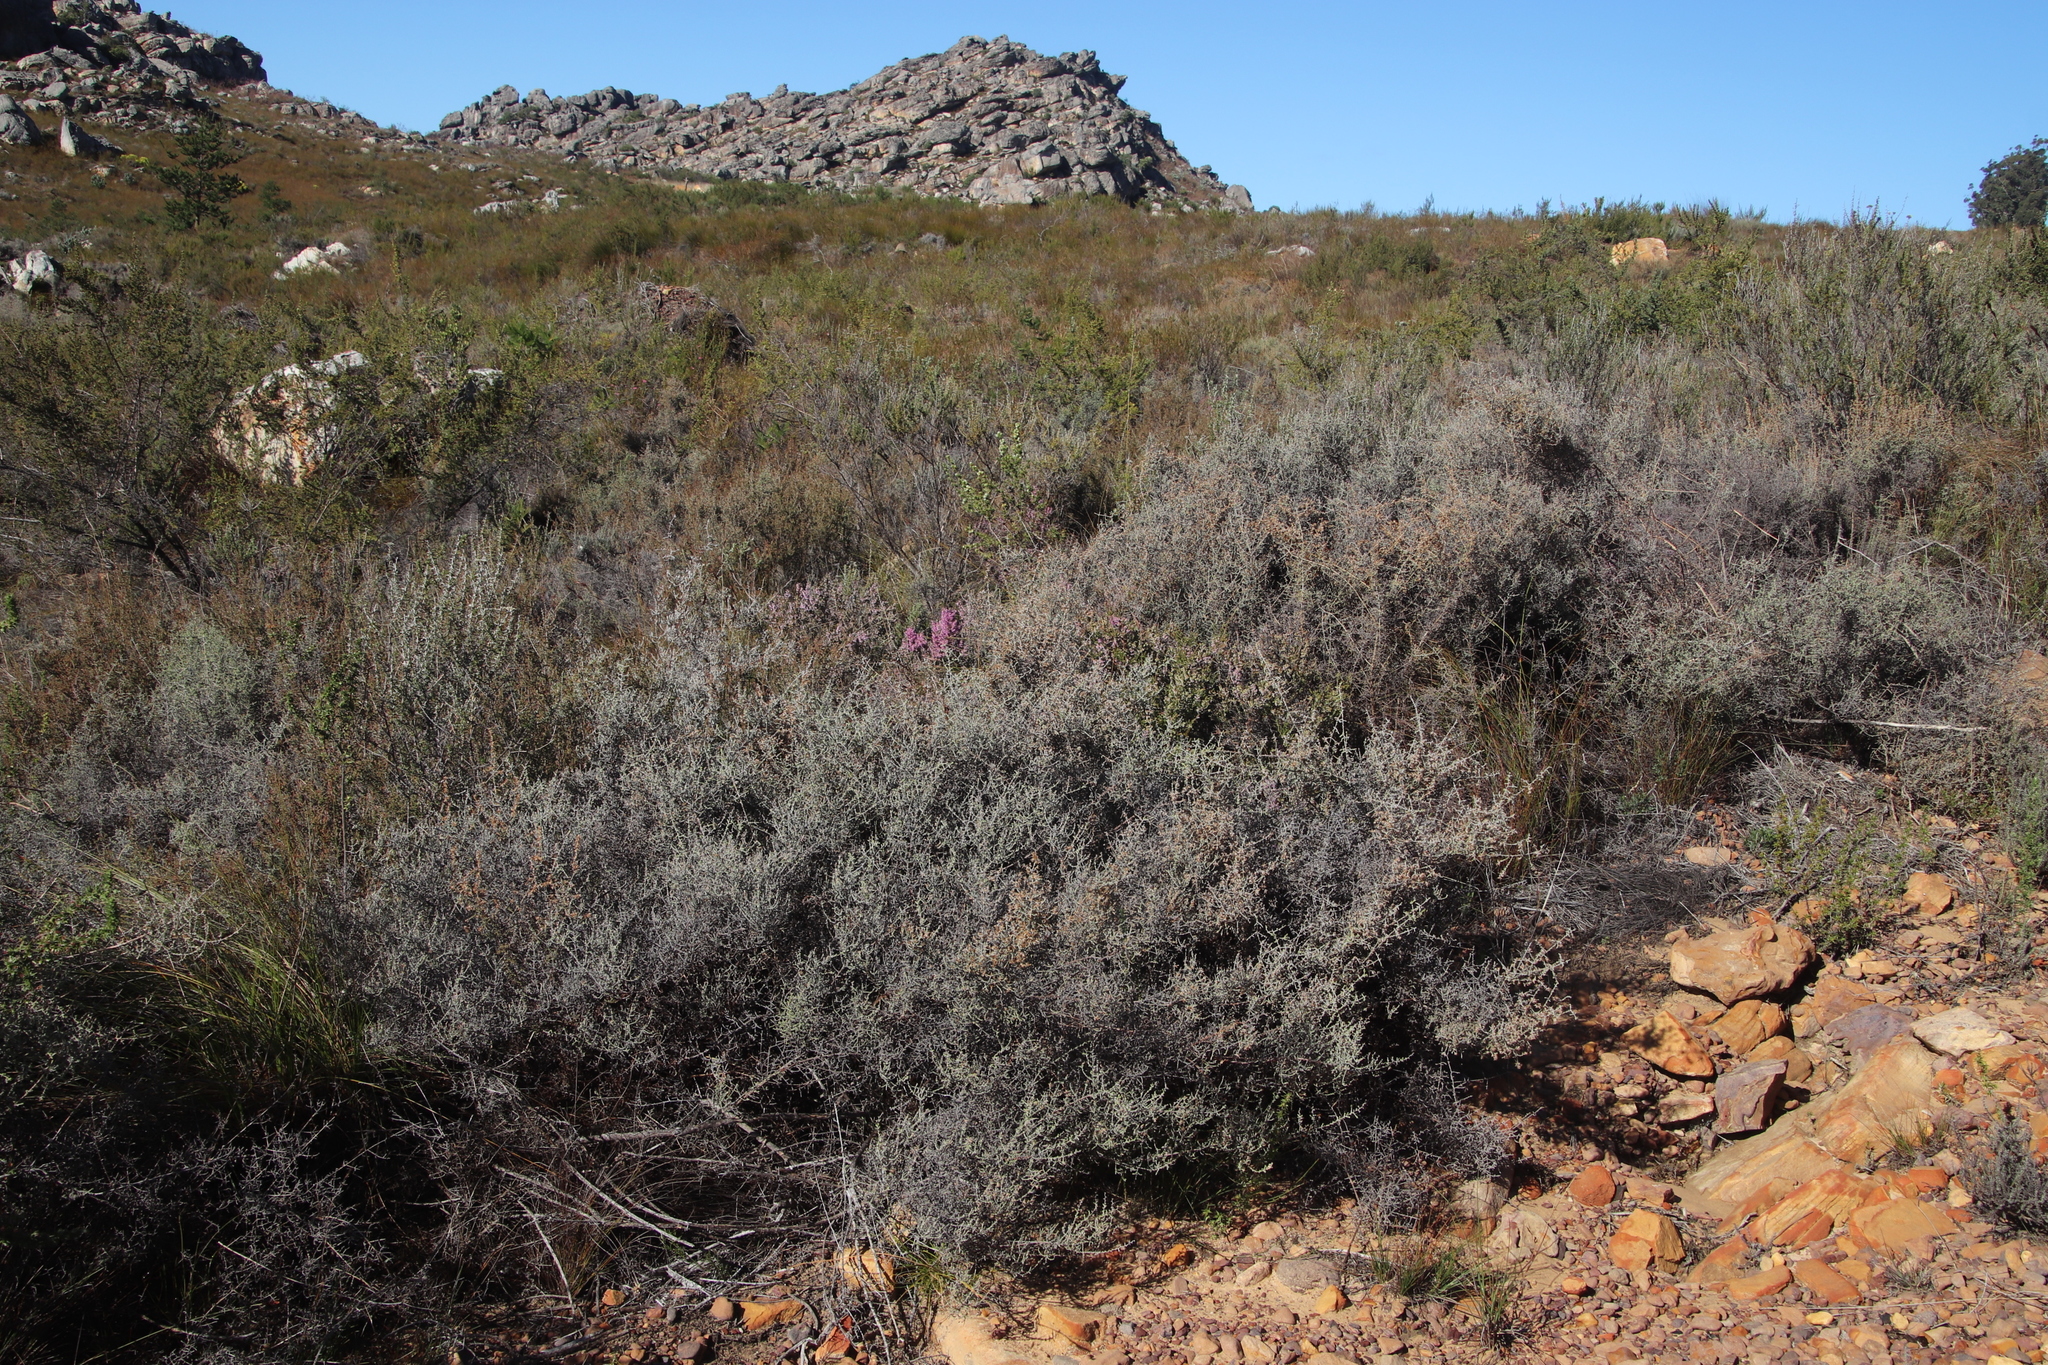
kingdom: Plantae
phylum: Tracheophyta
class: Magnoliopsida
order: Asterales
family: Asteraceae
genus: Seriphium
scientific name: Seriphium plumosum
